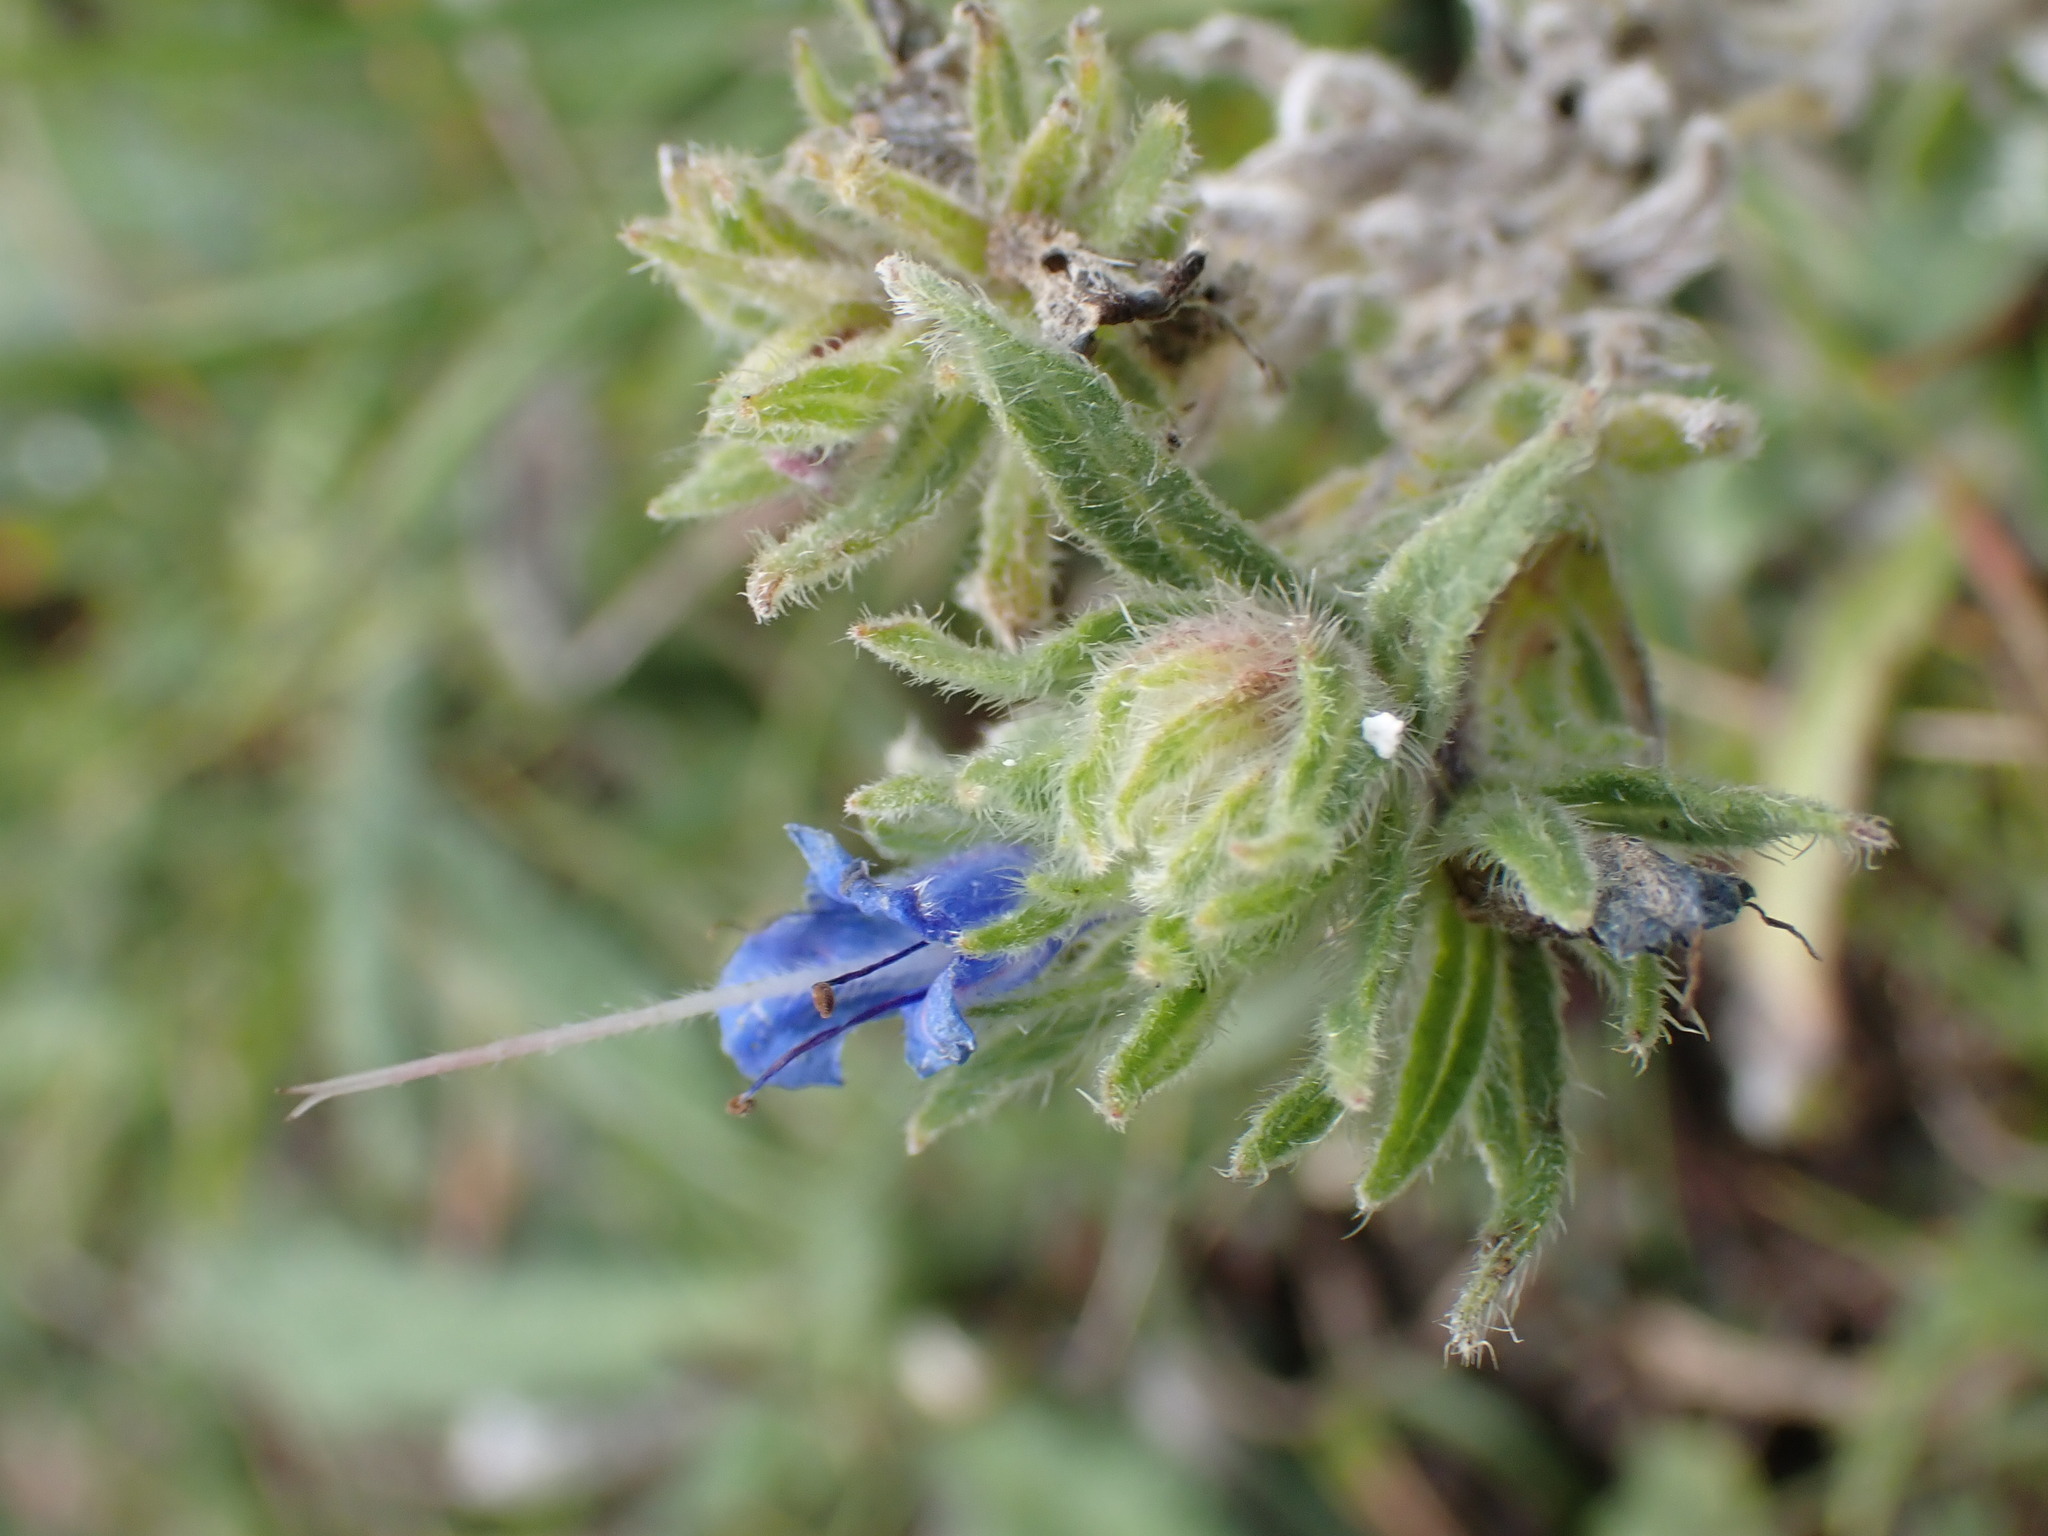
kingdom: Plantae
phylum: Tracheophyta
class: Magnoliopsida
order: Boraginales
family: Boraginaceae
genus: Echium
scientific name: Echium vulgare
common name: Common viper's bugloss
